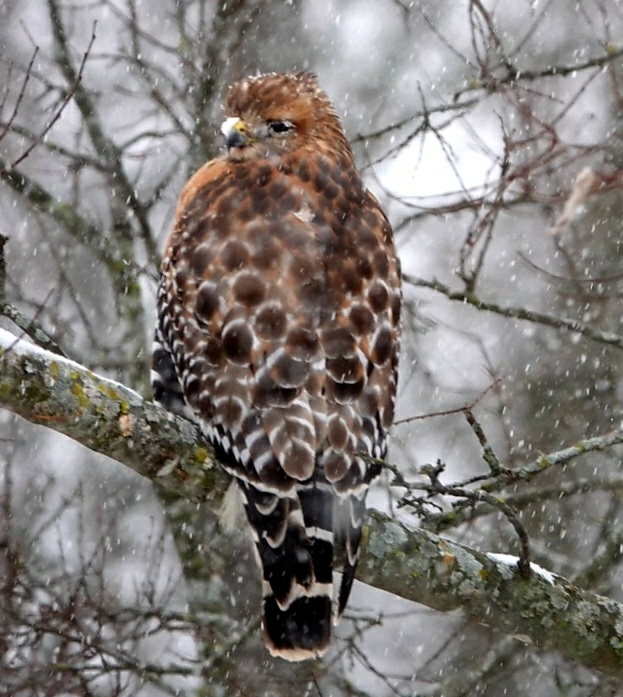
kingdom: Animalia
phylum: Chordata
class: Aves
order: Accipitriformes
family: Accipitridae
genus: Buteo
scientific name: Buteo lineatus
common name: Red-shouldered hawk
